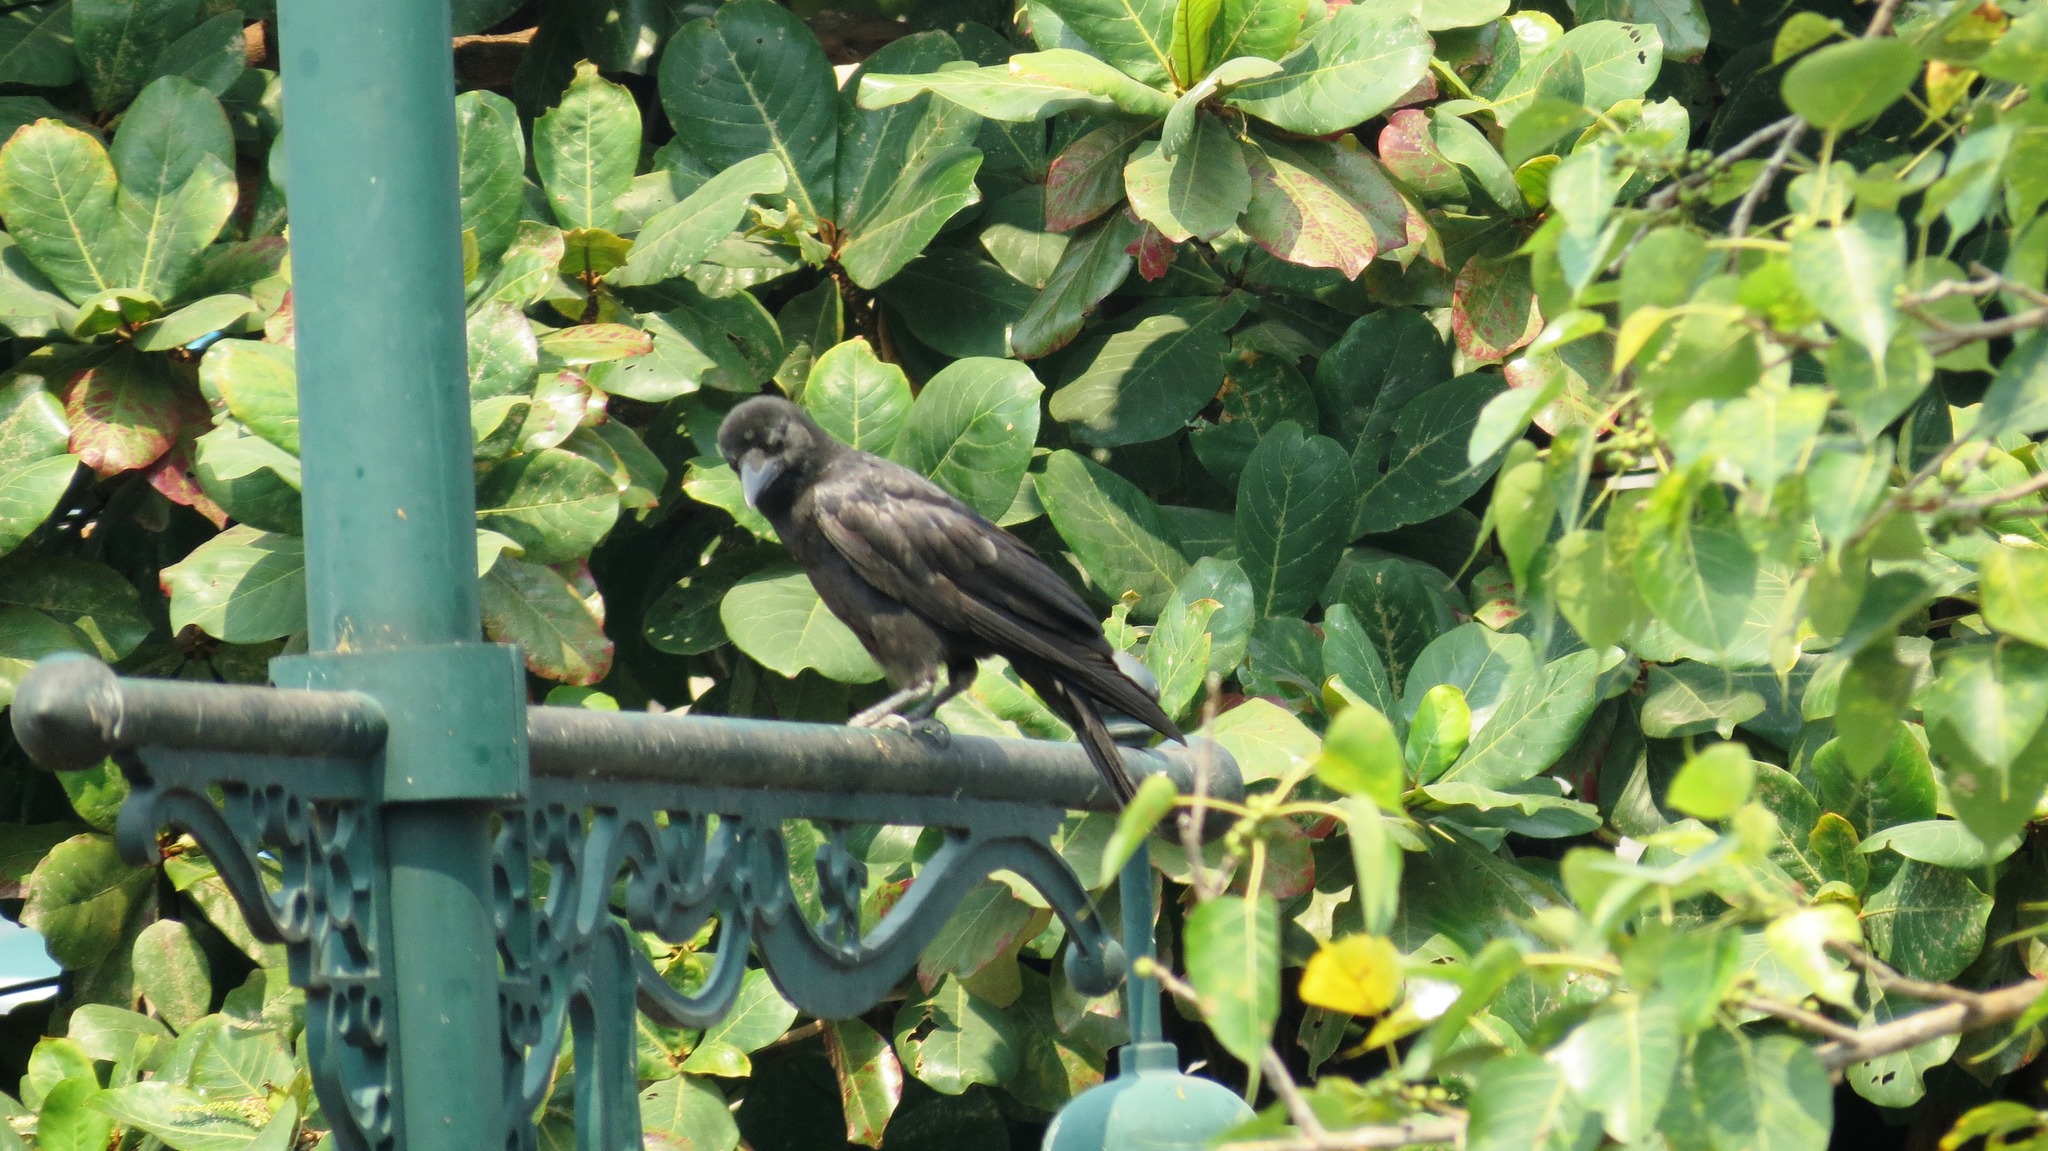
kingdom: Animalia
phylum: Chordata
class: Aves
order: Passeriformes
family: Corvidae
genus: Corvus
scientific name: Corvus macrorhynchos
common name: Large-billed crow
